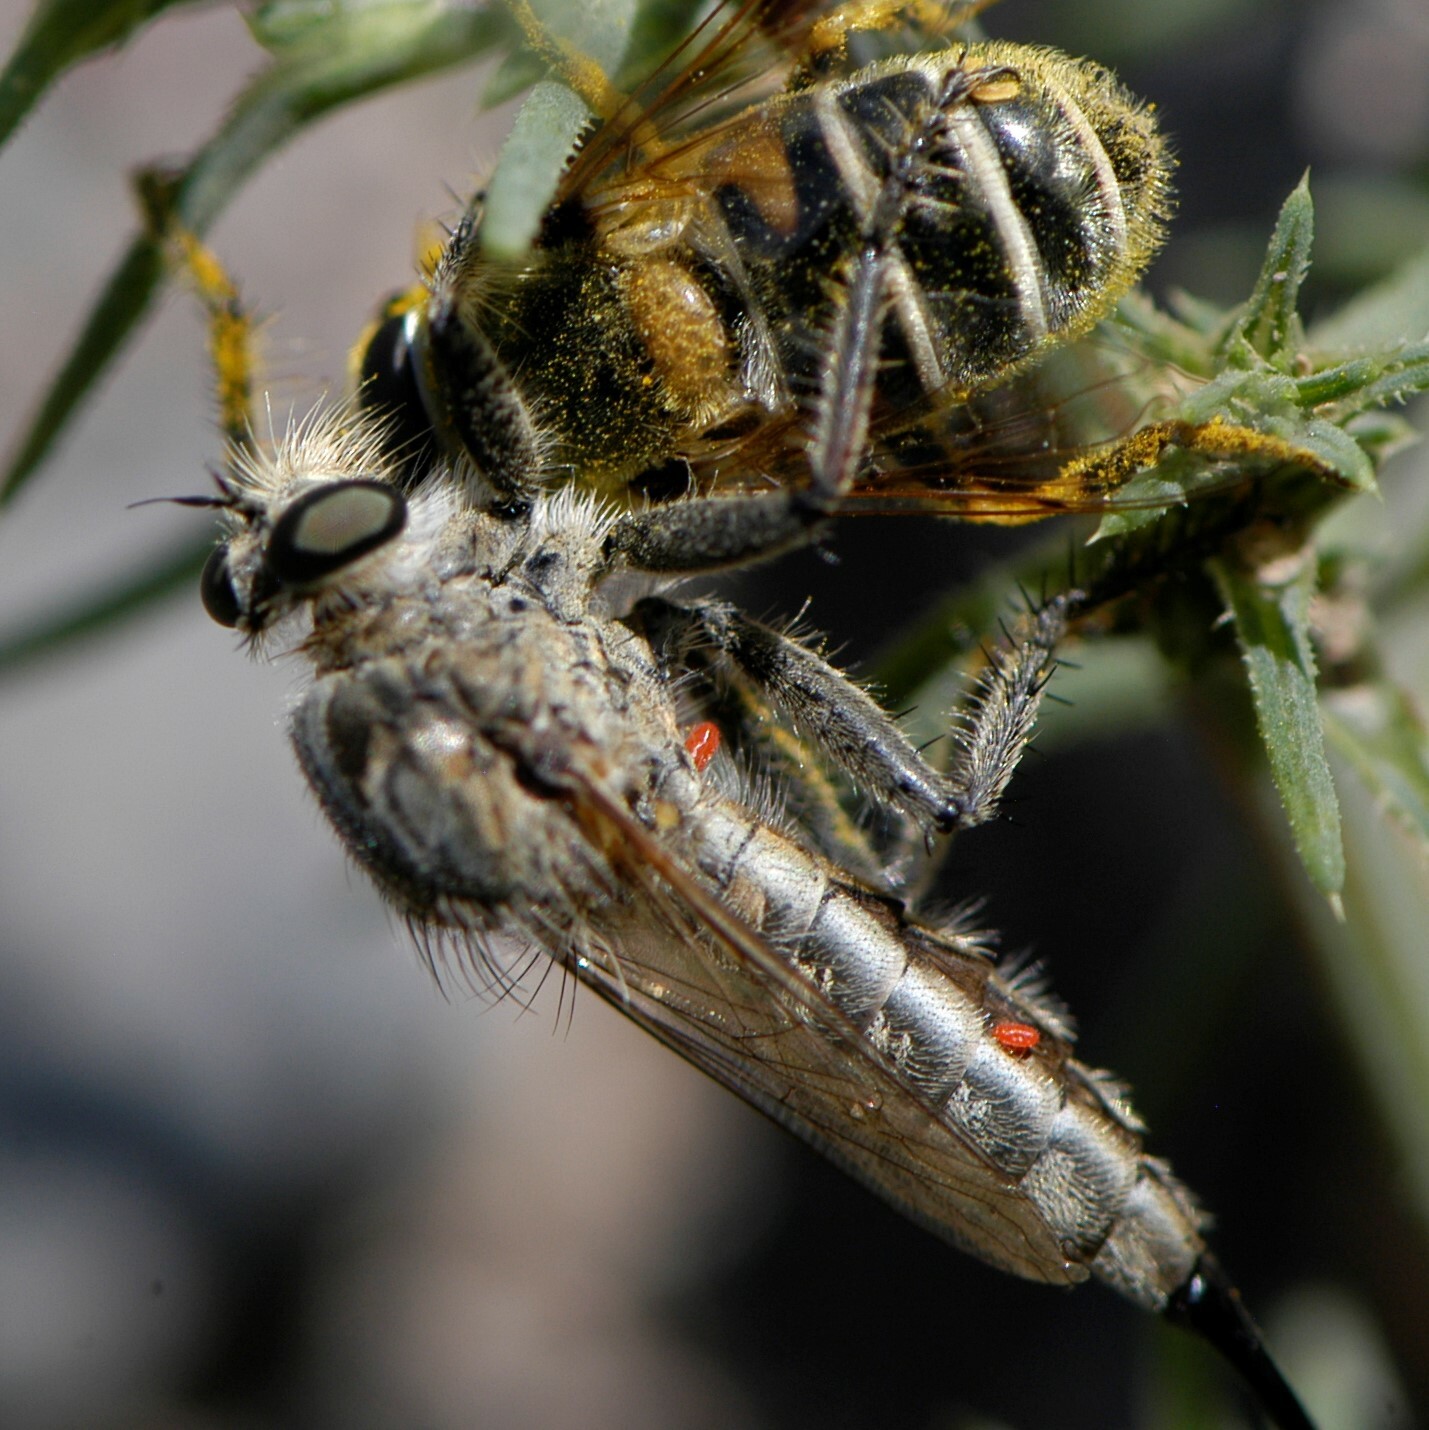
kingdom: Animalia
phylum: Arthropoda
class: Insecta
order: Diptera
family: Asilidae
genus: Efferia
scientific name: Efferia
